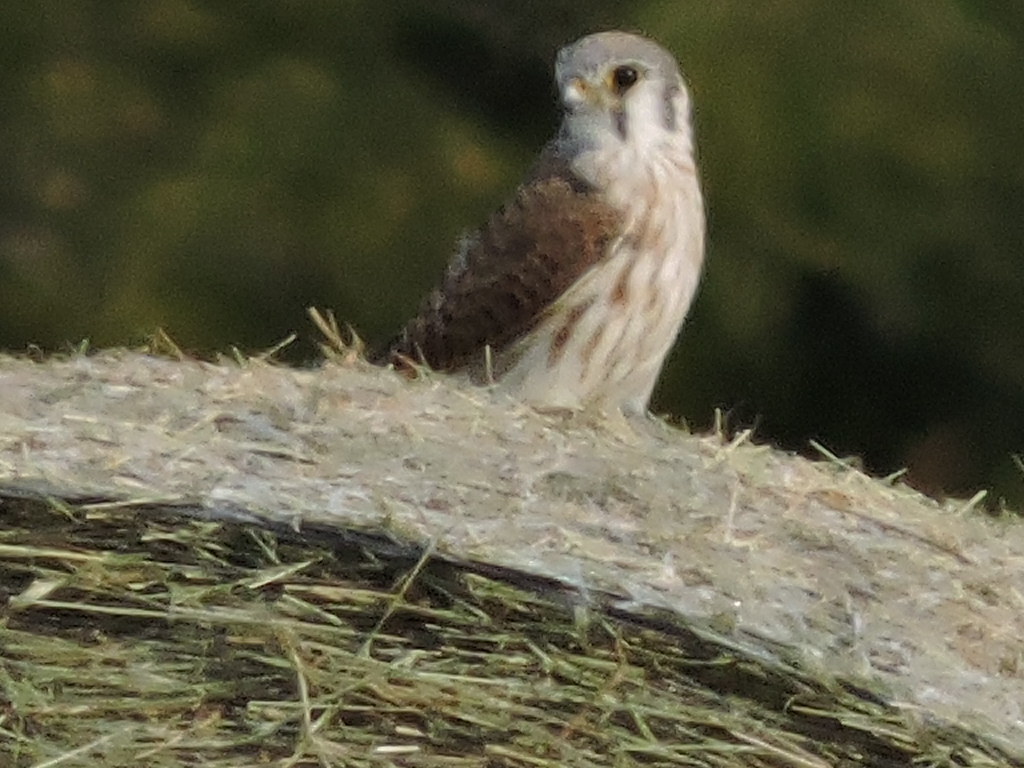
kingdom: Animalia
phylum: Chordata
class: Aves
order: Falconiformes
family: Falconidae
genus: Falco
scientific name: Falco sparverius
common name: American kestrel
